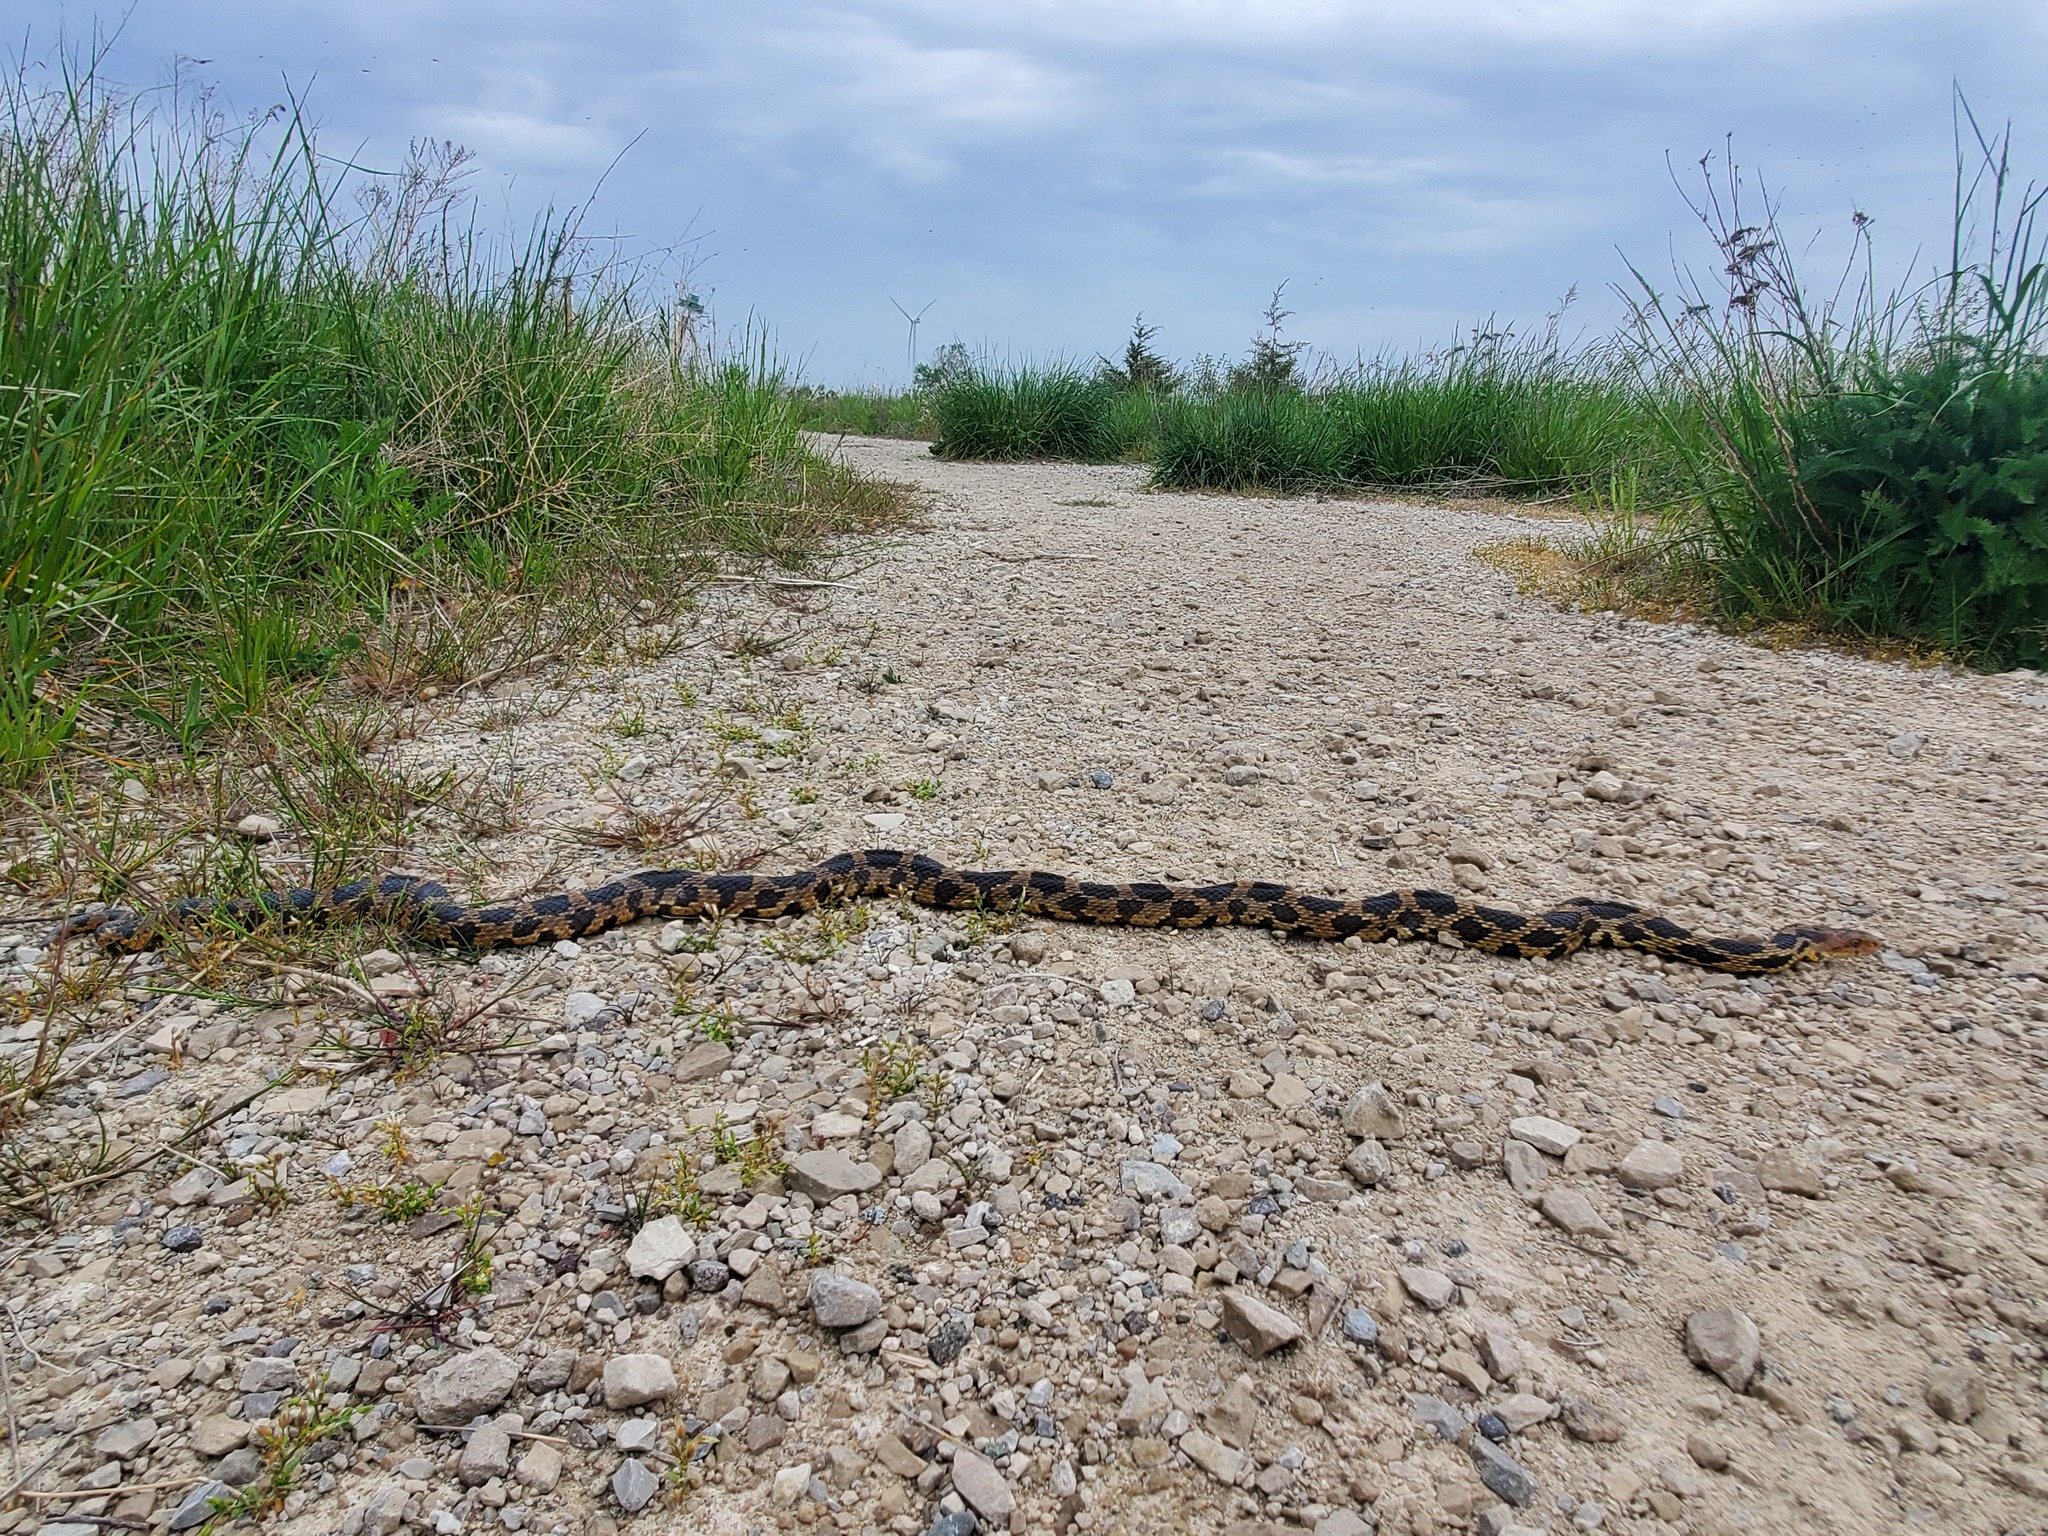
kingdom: Animalia
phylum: Chordata
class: Squamata
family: Colubridae
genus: Pantherophis
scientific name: Pantherophis vulpinus
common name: Eastern fox snake
